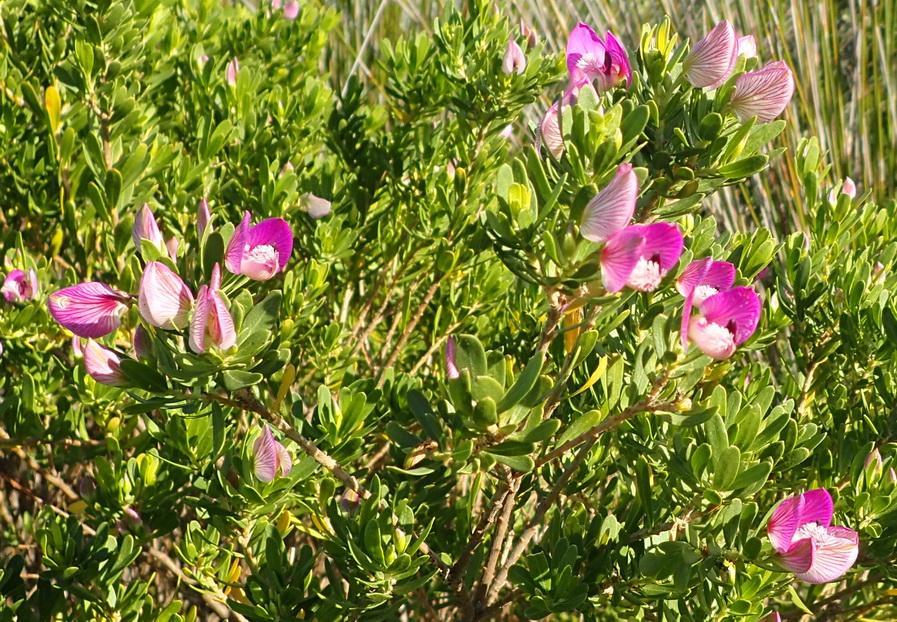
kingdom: Plantae
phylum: Tracheophyta
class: Magnoliopsida
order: Fabales
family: Polygalaceae
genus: Polygala
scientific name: Polygala myrtifolia
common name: Myrtle-leaf milkwort
